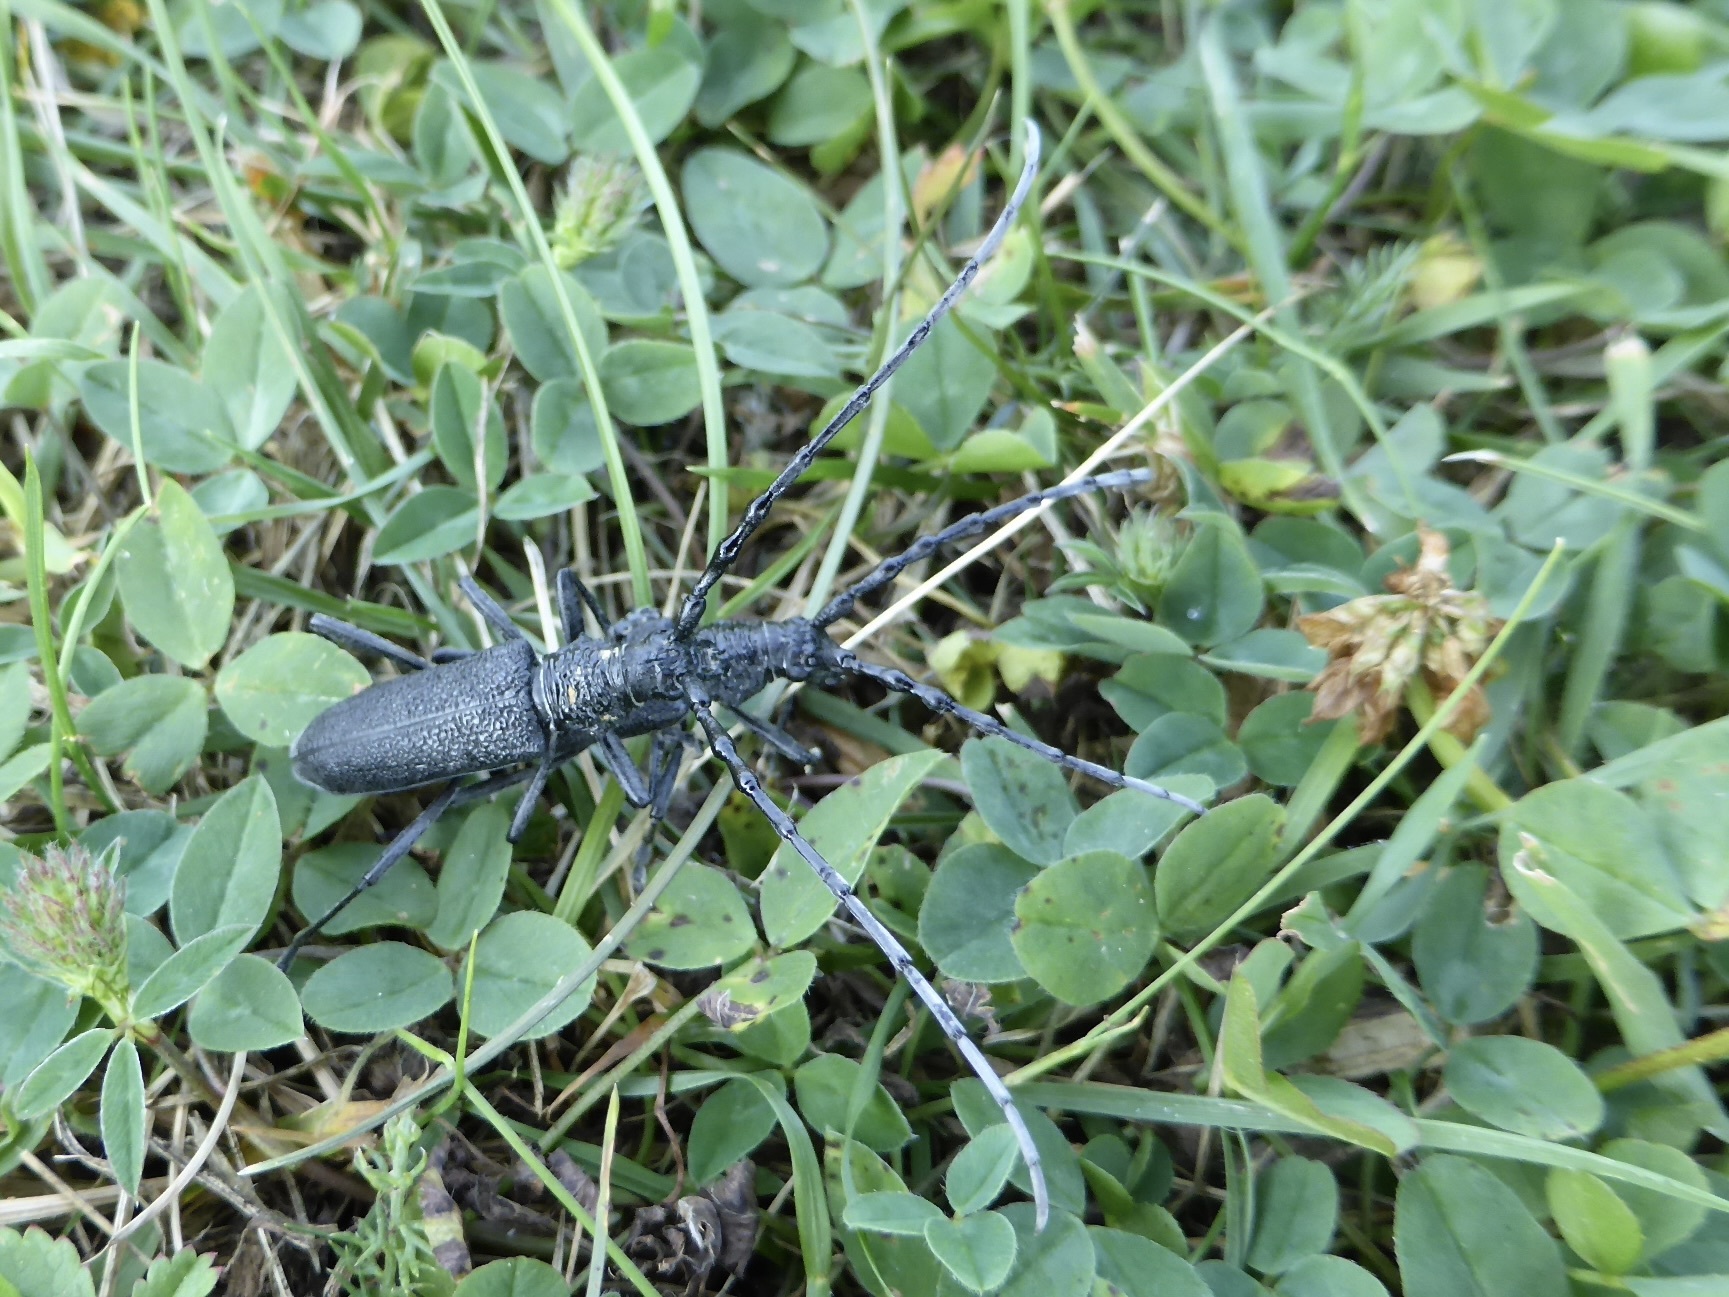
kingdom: Animalia
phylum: Arthropoda
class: Insecta
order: Coleoptera
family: Cerambycidae
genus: Cerambyx
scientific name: Cerambyx scopolii
